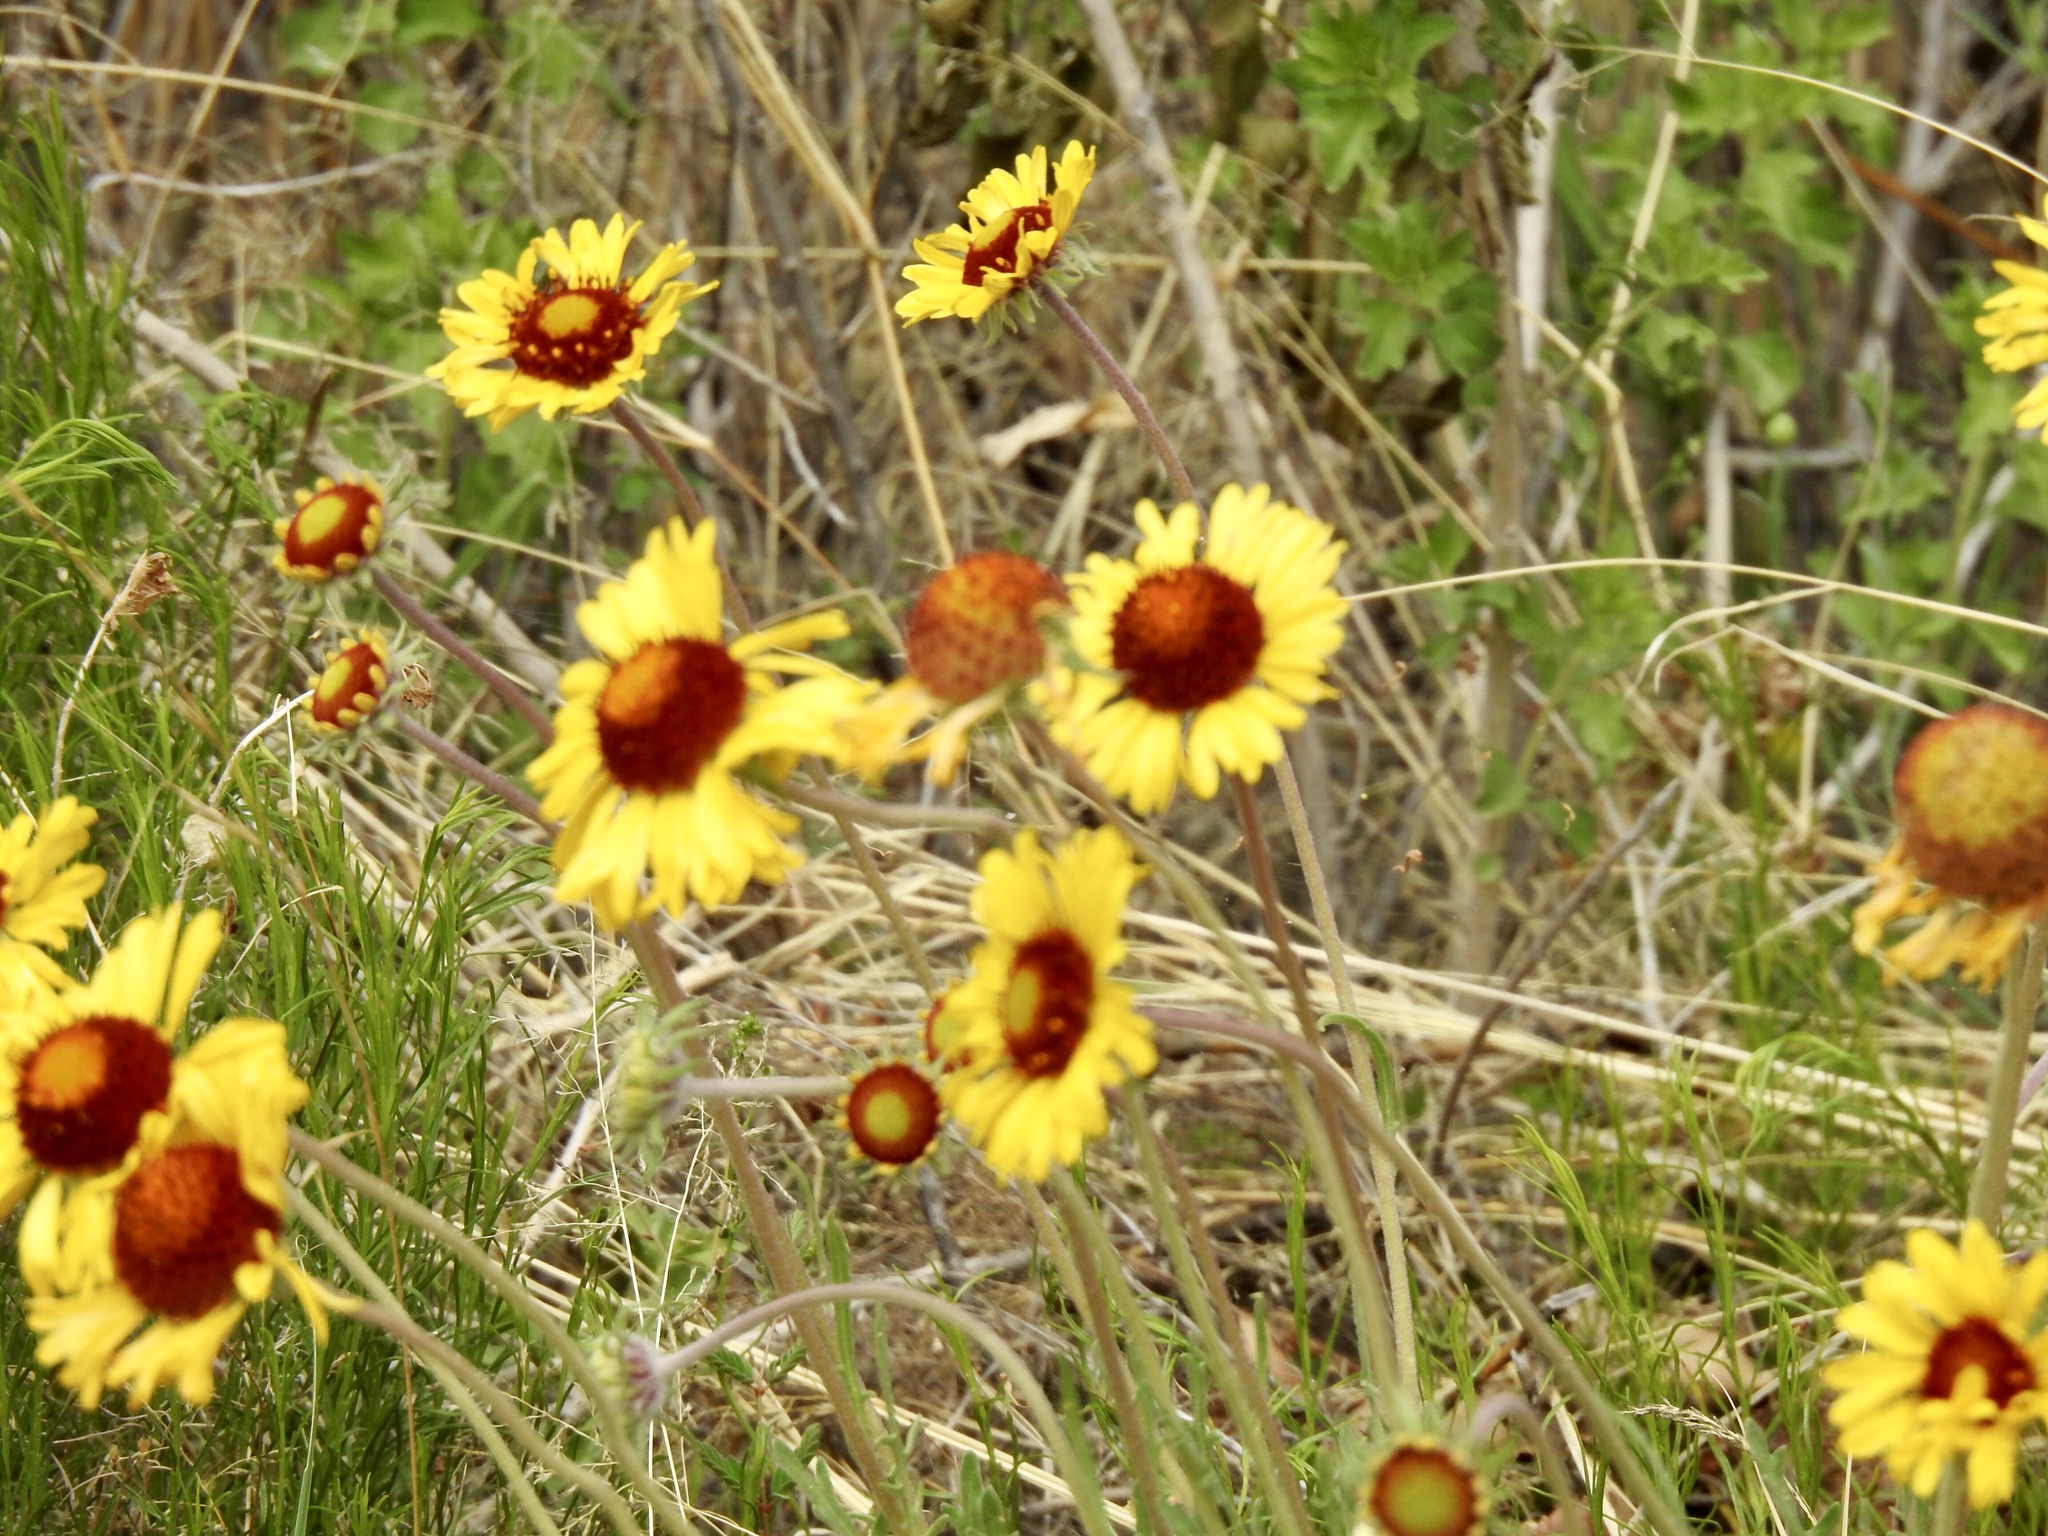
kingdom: Plantae
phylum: Tracheophyta
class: Magnoliopsida
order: Asterales
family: Asteraceae
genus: Gaillardia
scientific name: Gaillardia pinnatifida
